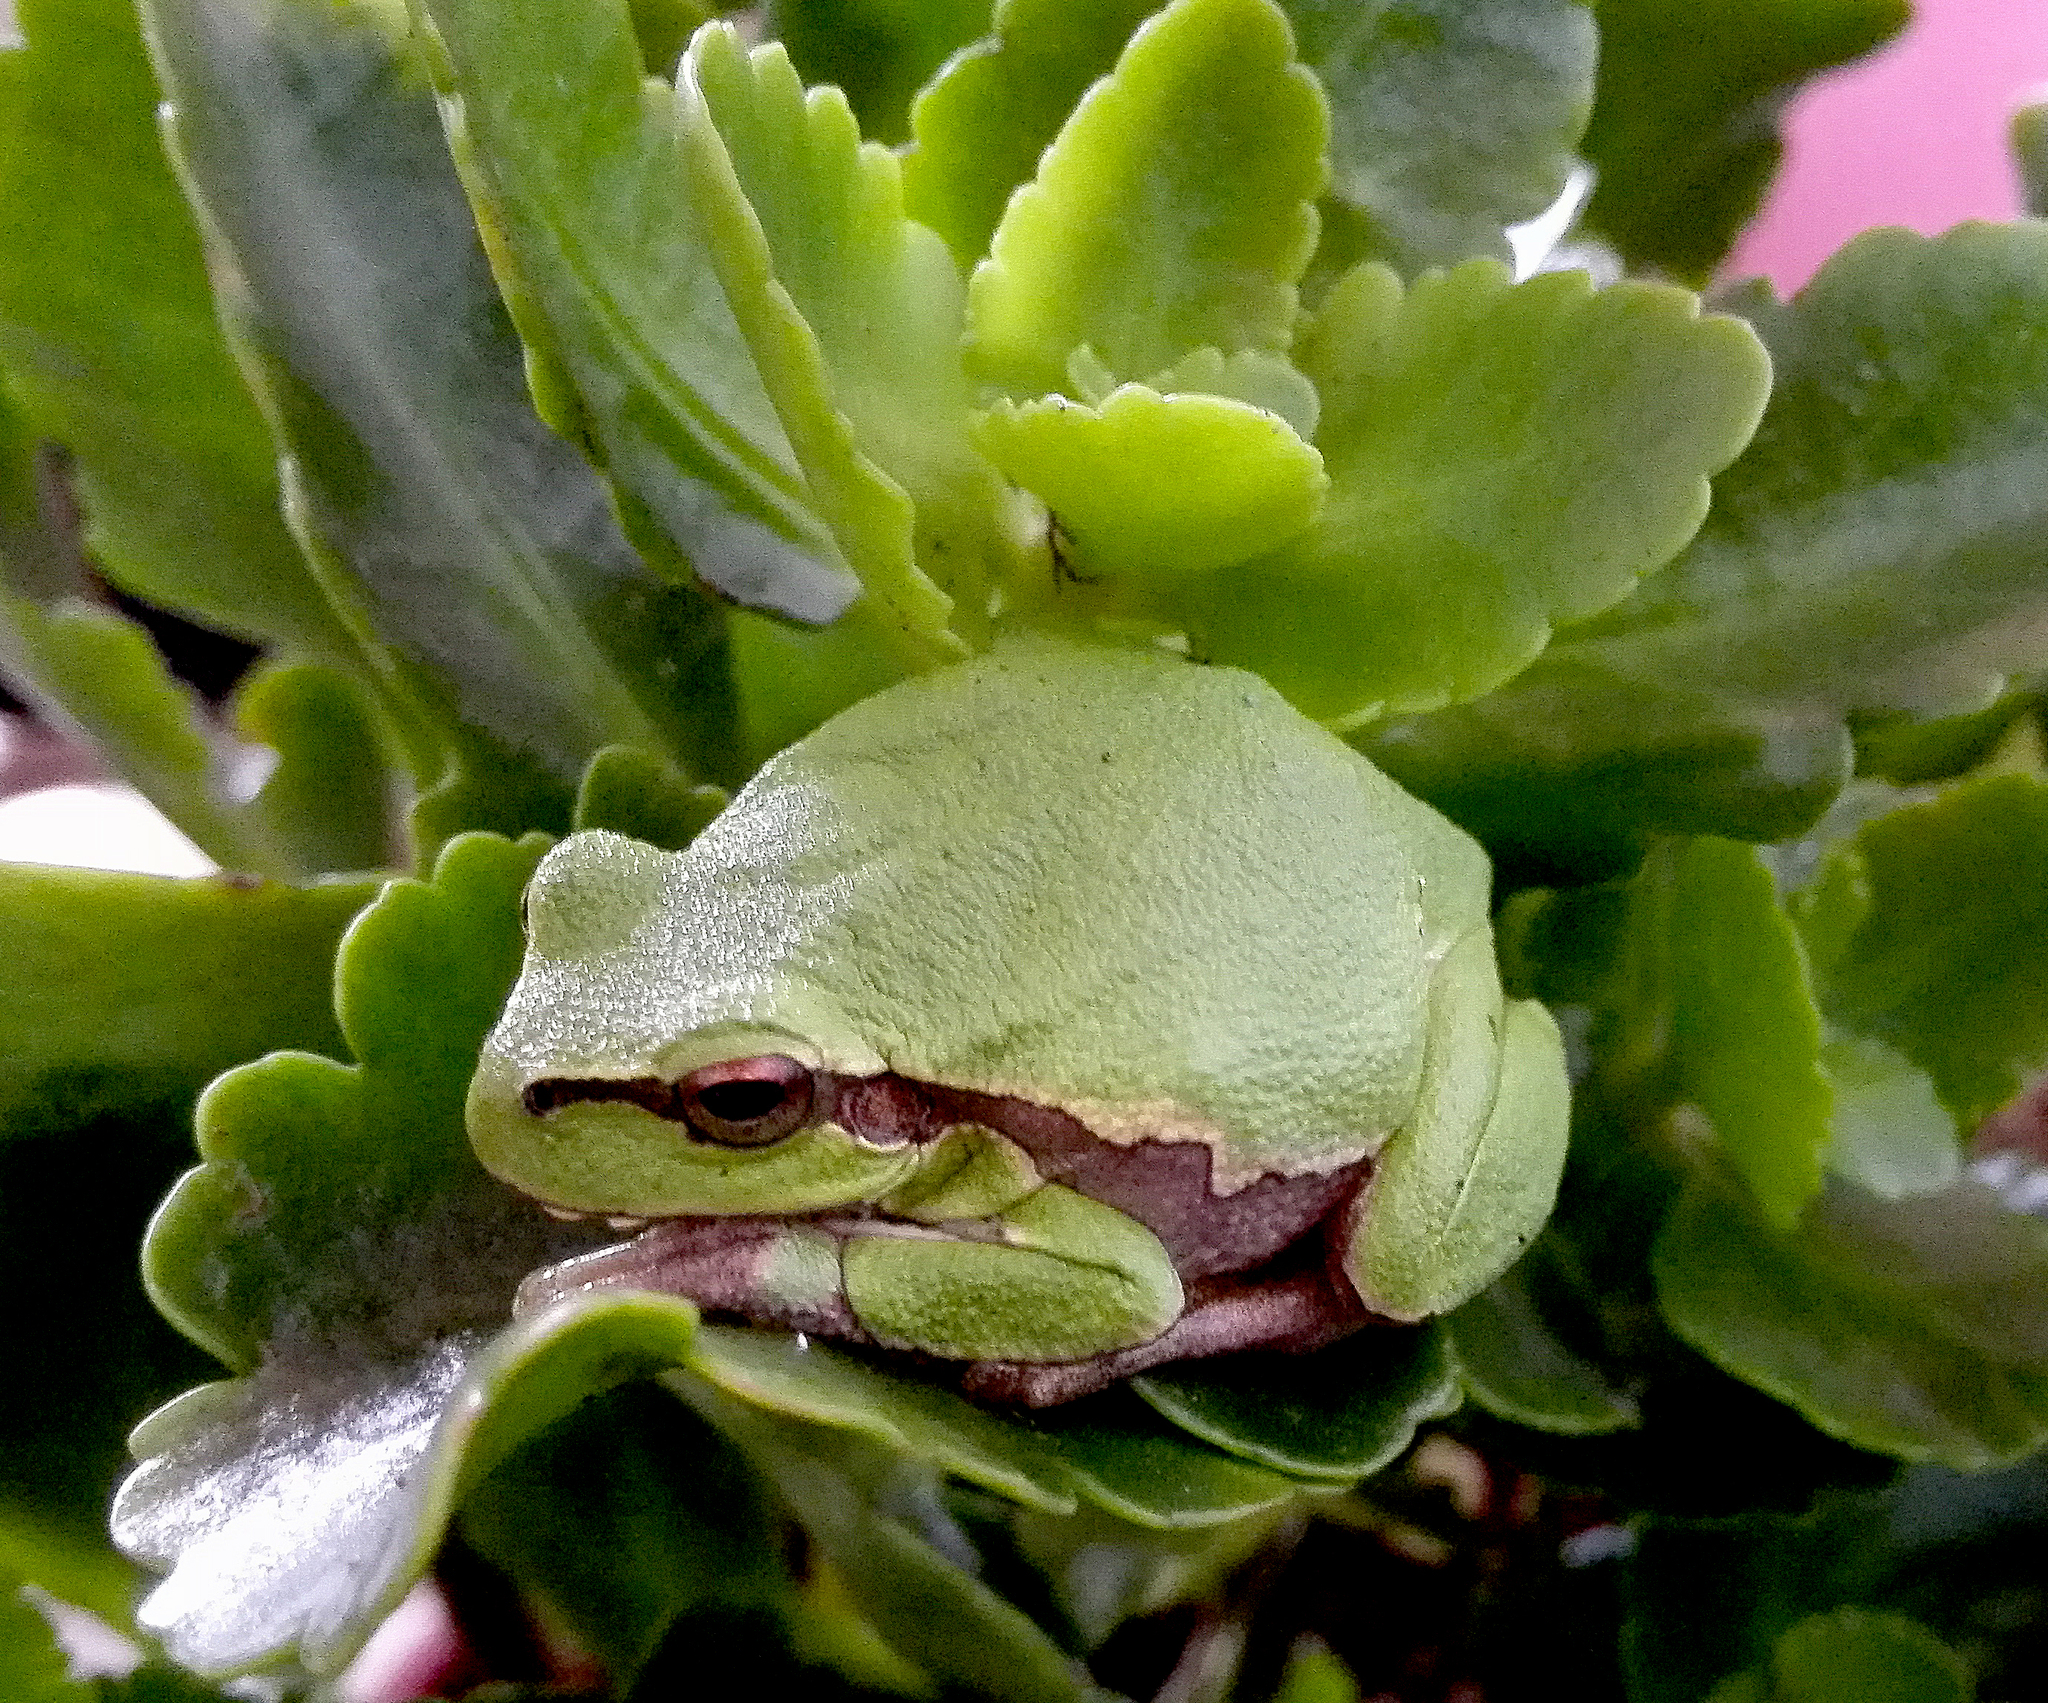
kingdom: Animalia
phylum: Chordata
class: Amphibia
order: Anura
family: Hylidae
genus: Hyla
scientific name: Hyla orientalis
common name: Caucasian treefrog
